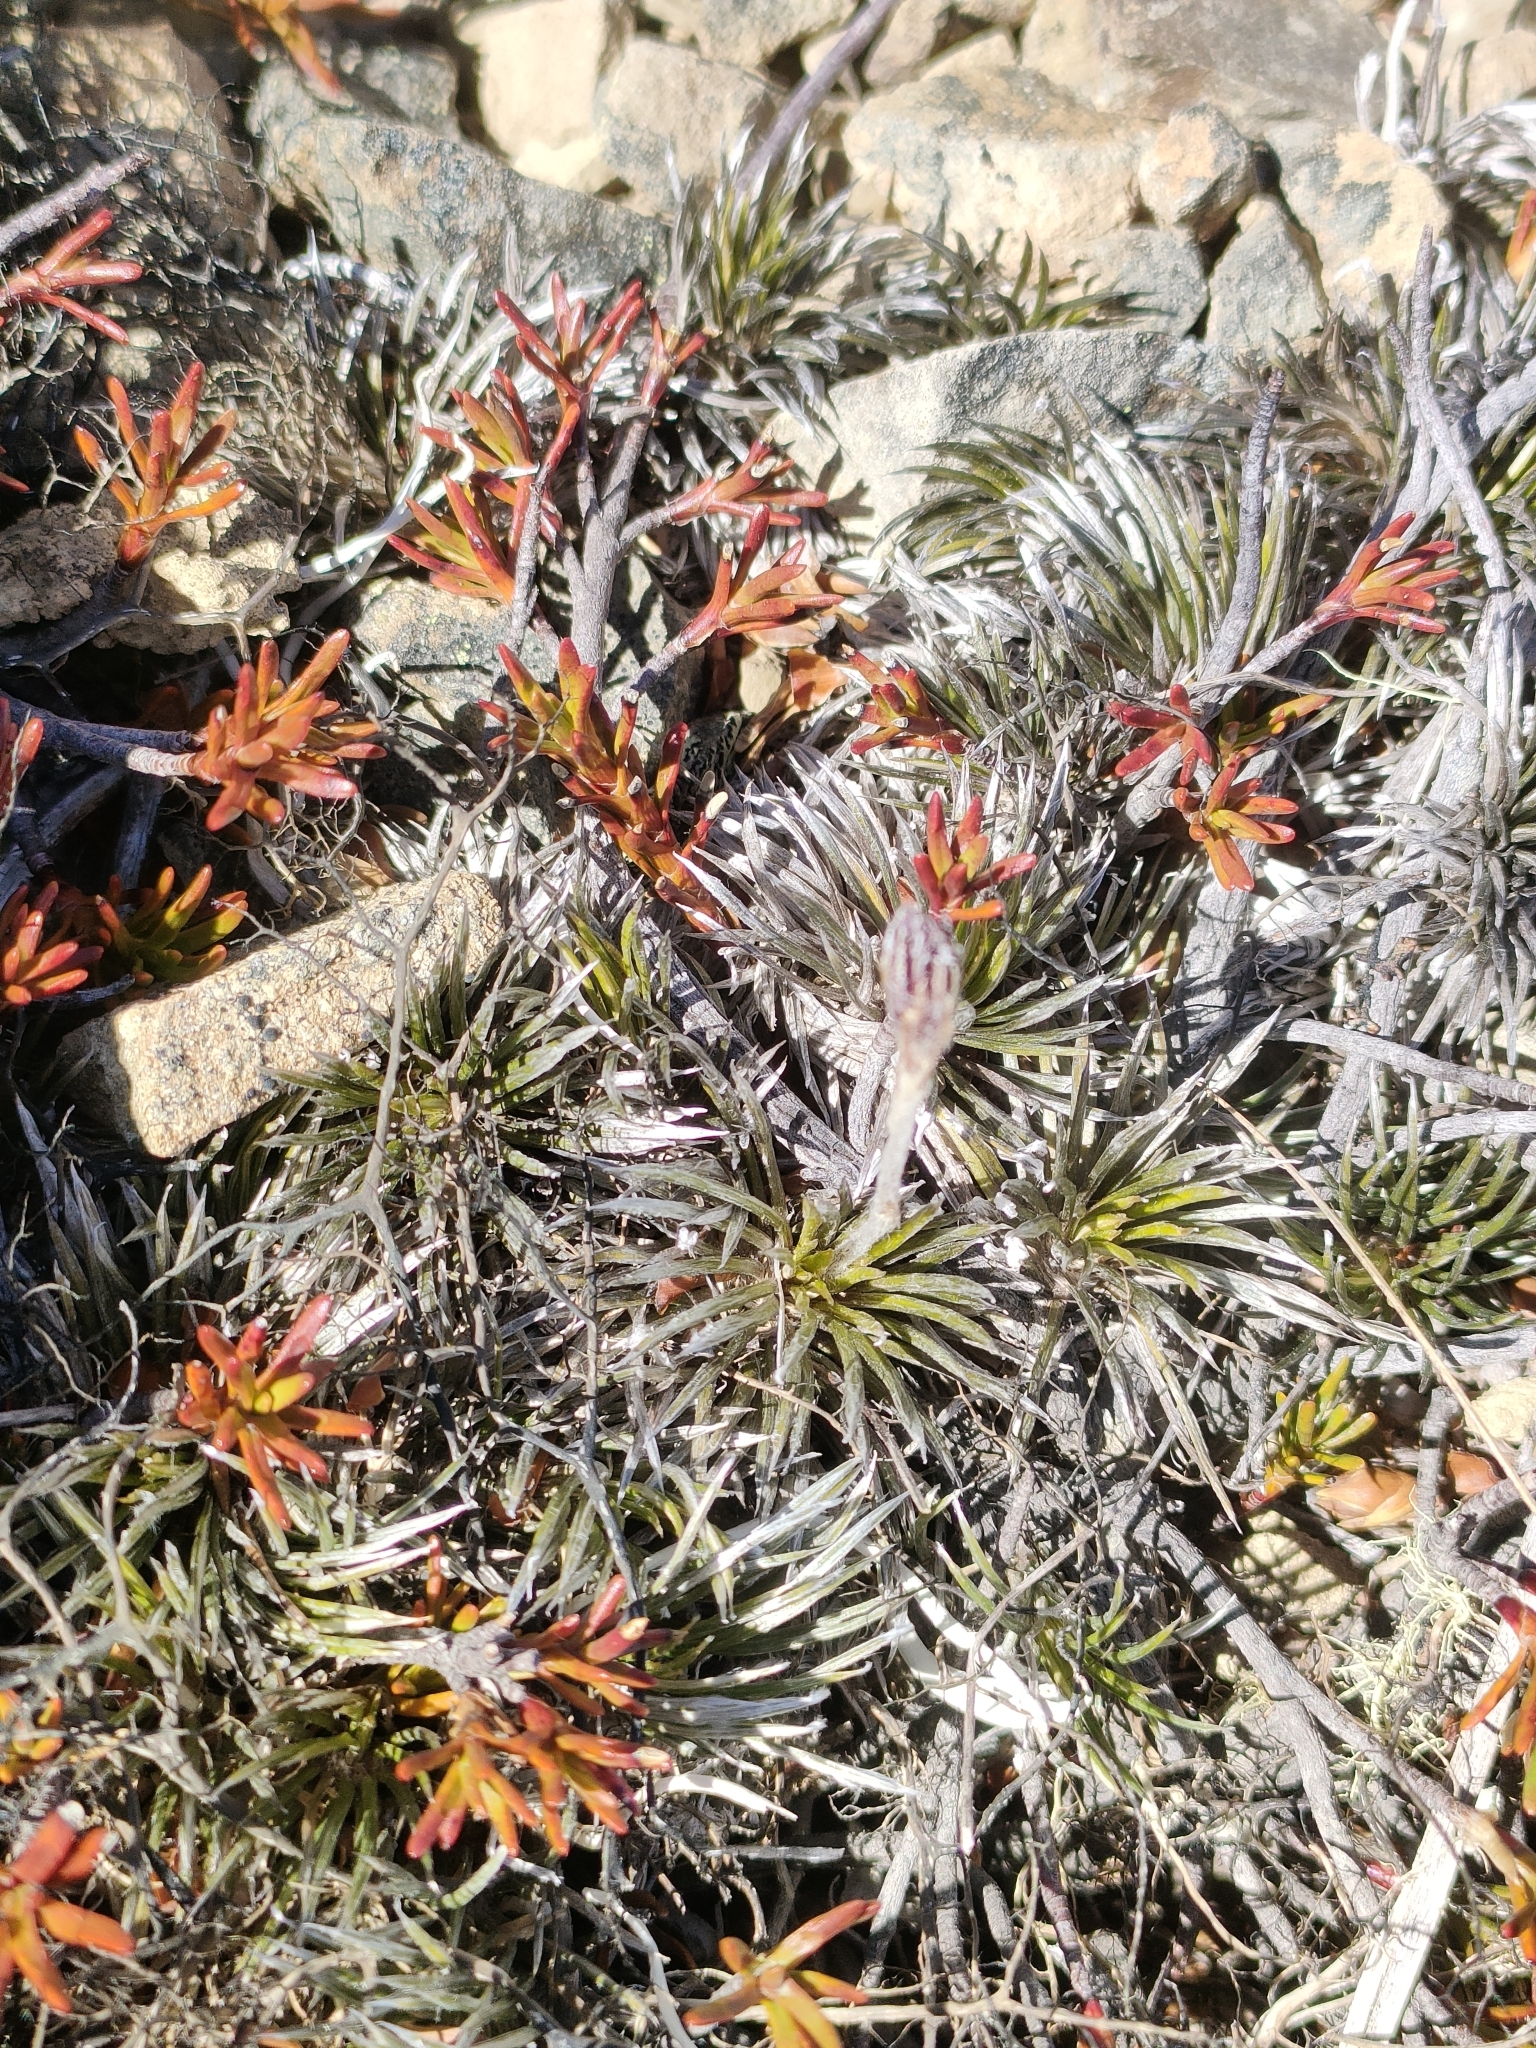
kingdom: Plantae
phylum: Tracheophyta
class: Magnoliopsida
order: Asterales
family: Asteraceae
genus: Celmisia
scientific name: Celmisia laricifolia
